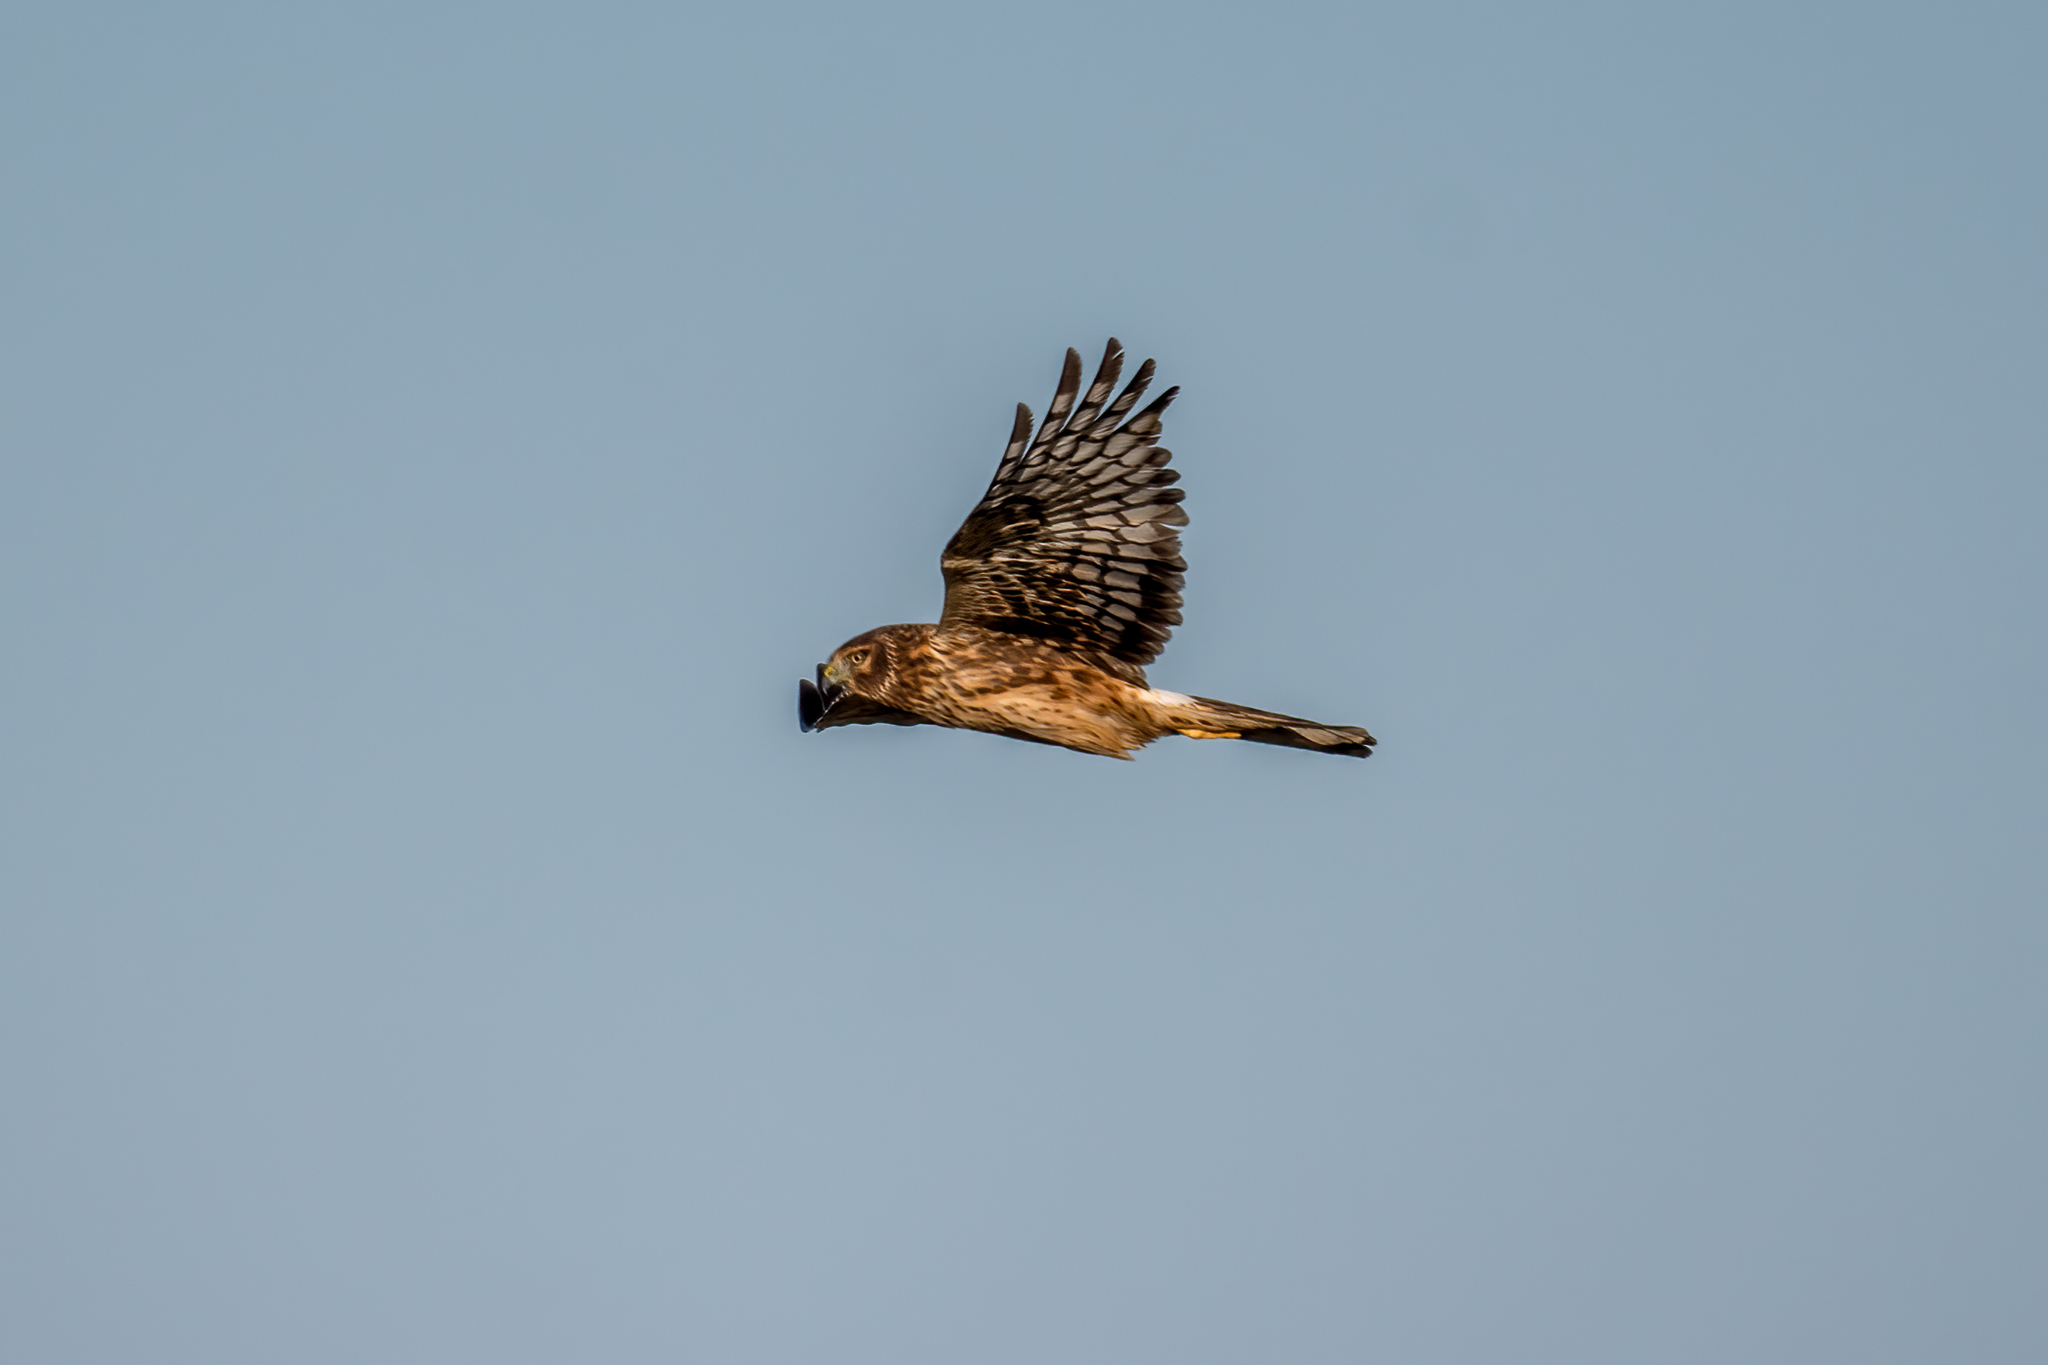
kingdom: Animalia
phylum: Chordata
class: Aves
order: Accipitriformes
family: Accipitridae
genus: Circus
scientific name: Circus cyaneus
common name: Hen harrier
